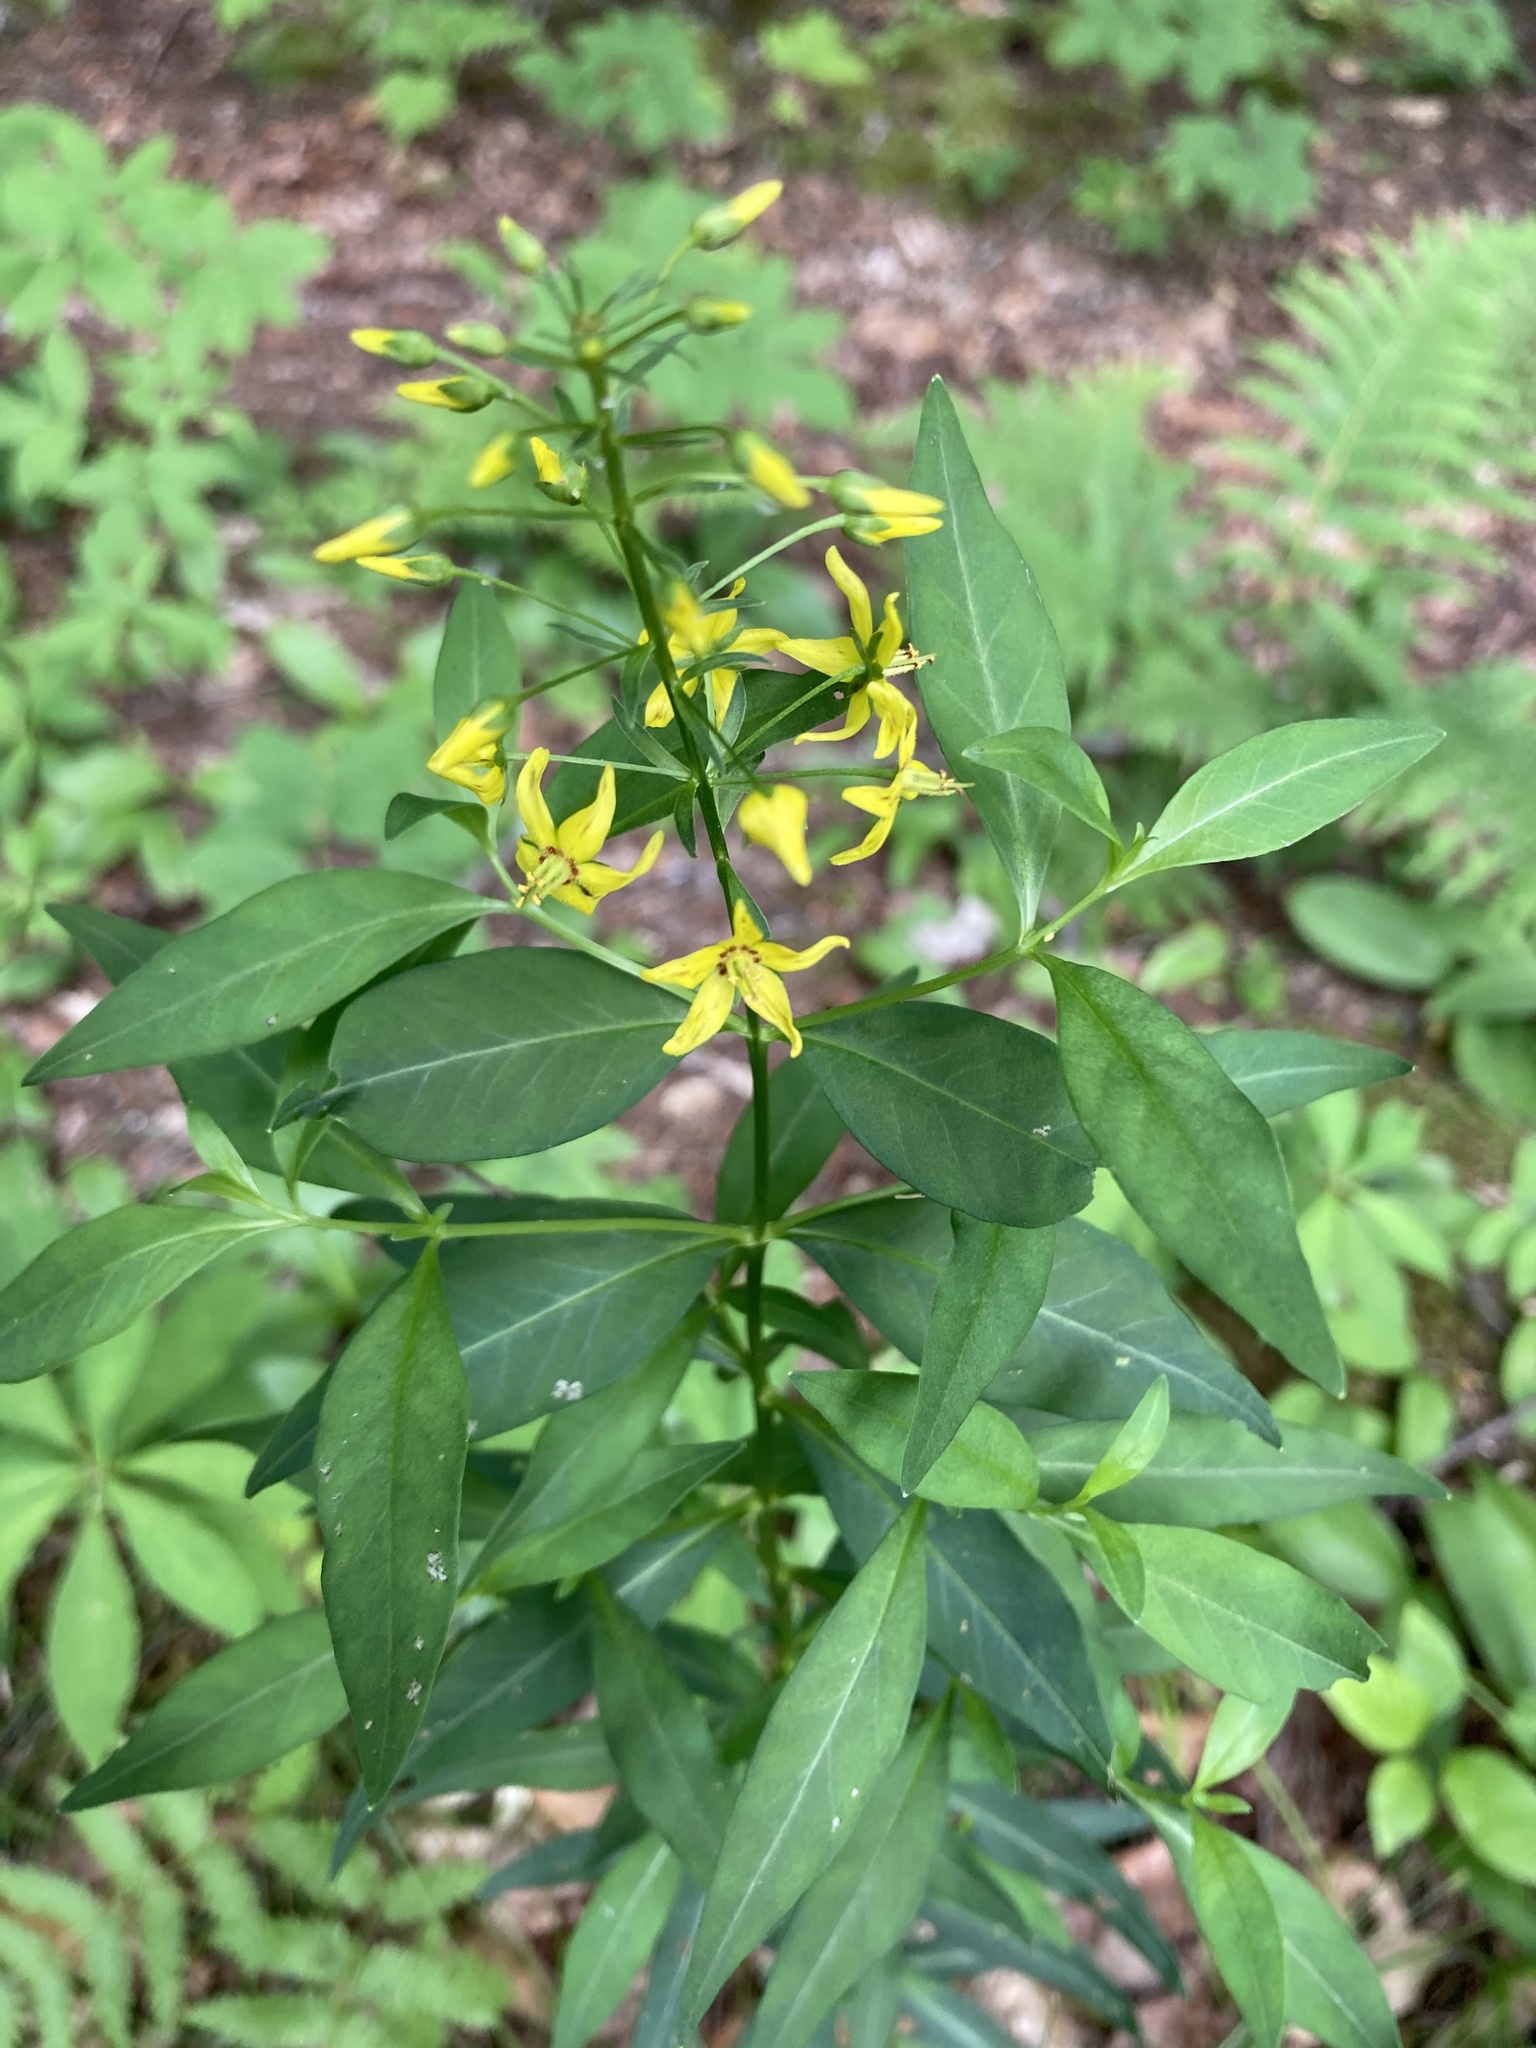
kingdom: Plantae
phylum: Tracheophyta
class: Magnoliopsida
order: Ericales
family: Primulaceae
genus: Lysimachia
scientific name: Lysimachia terrestris
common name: Lake loosestrife
